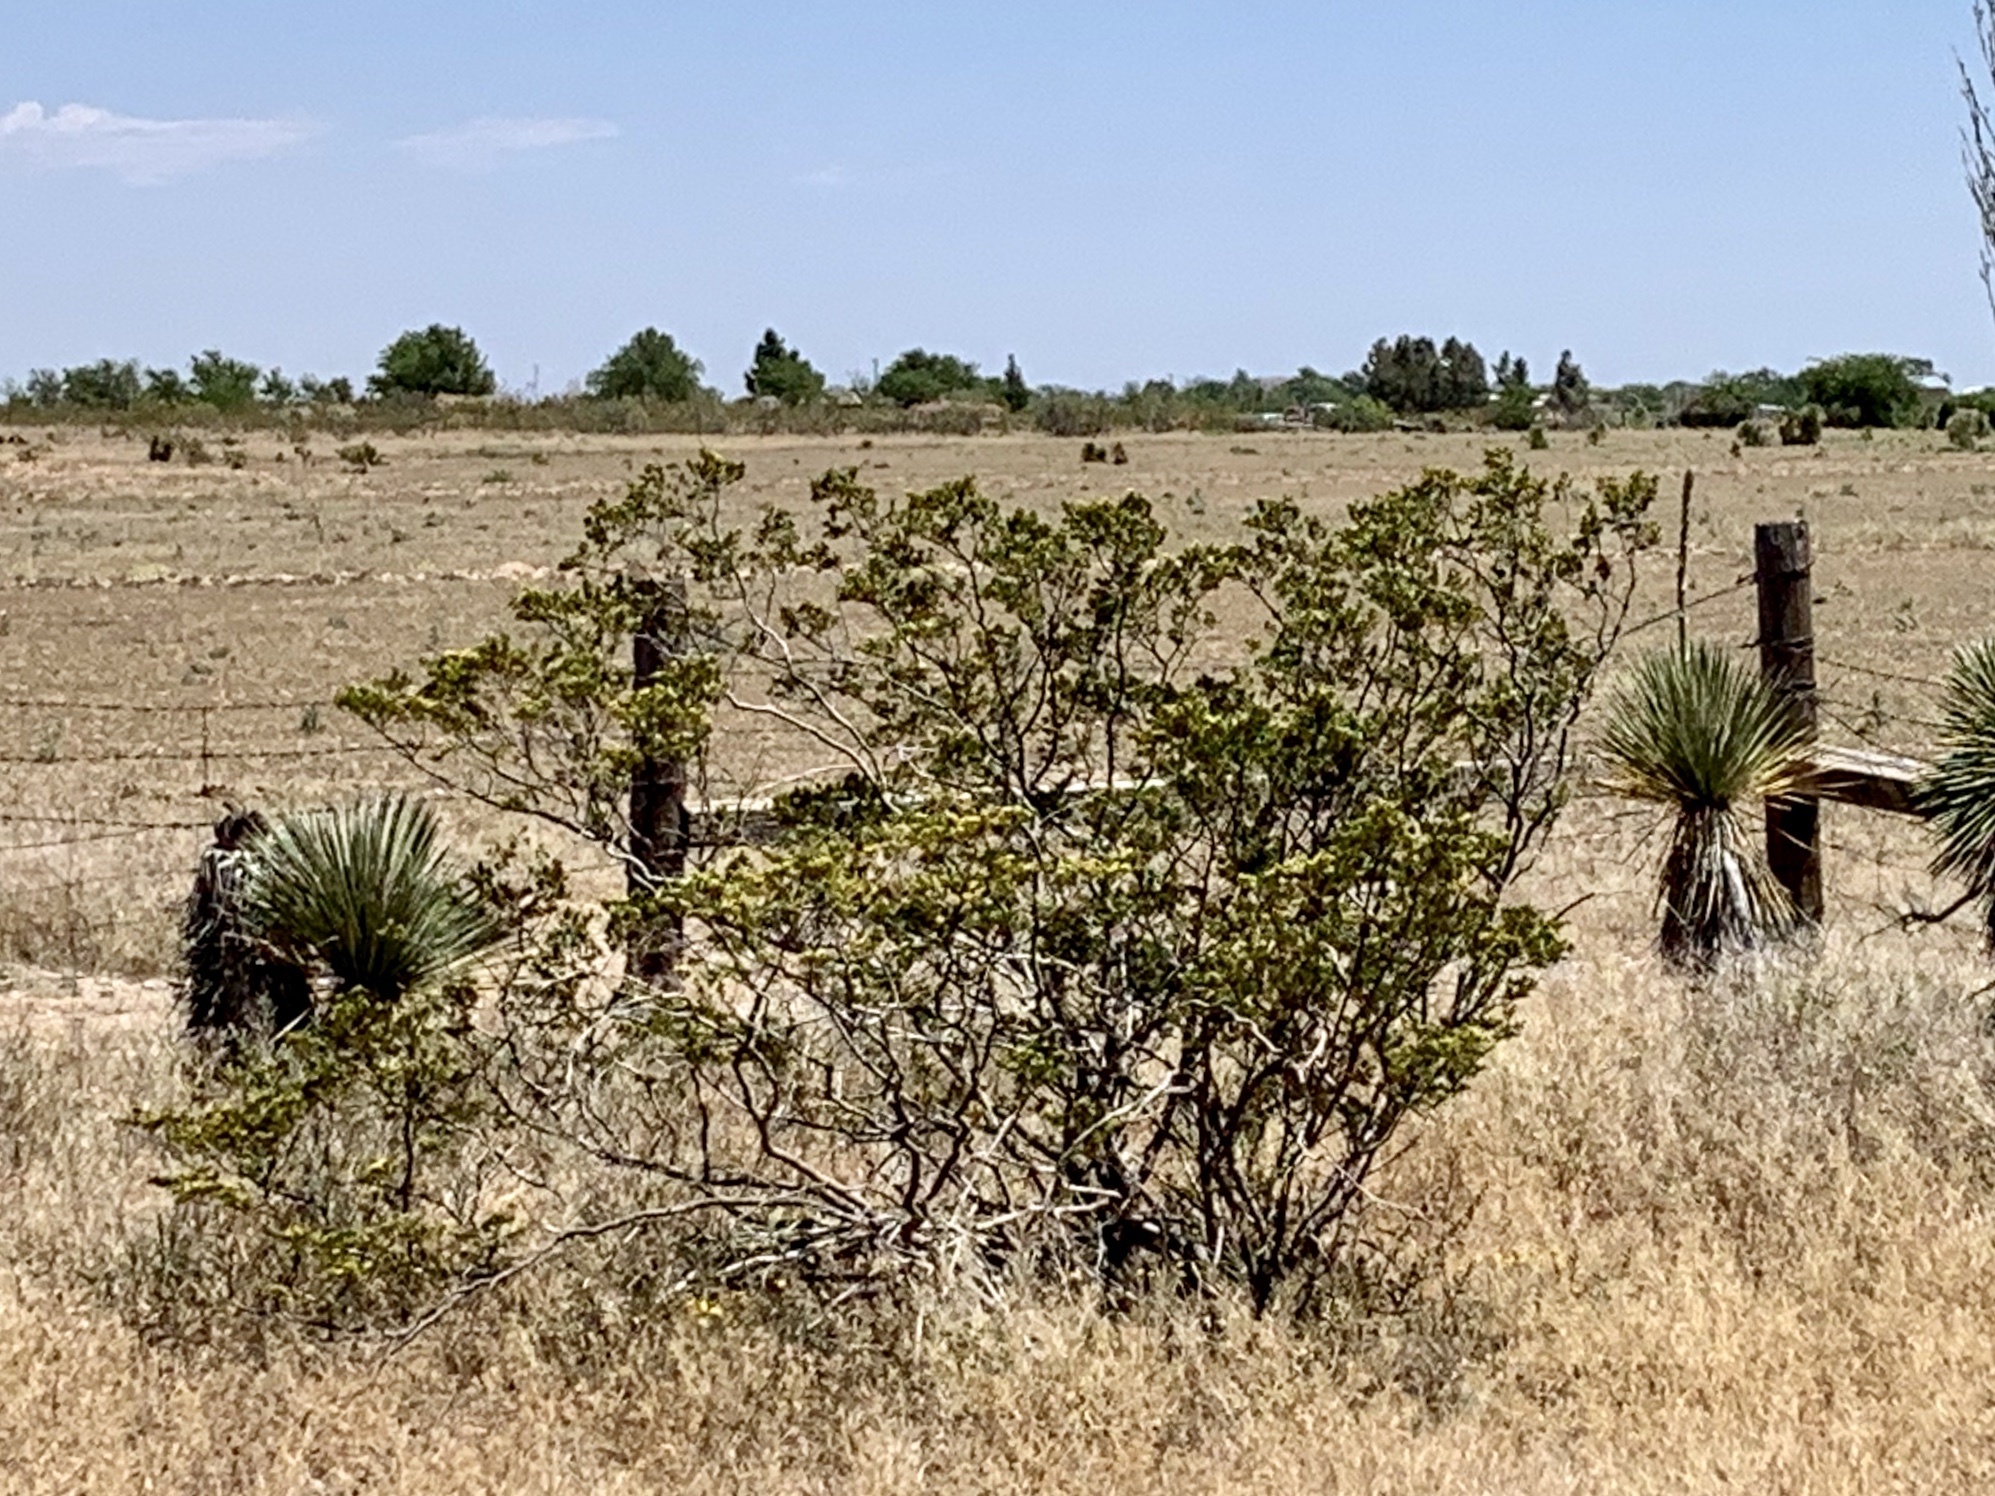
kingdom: Plantae
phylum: Tracheophyta
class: Magnoliopsida
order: Zygophyllales
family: Zygophyllaceae
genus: Larrea
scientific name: Larrea tridentata
